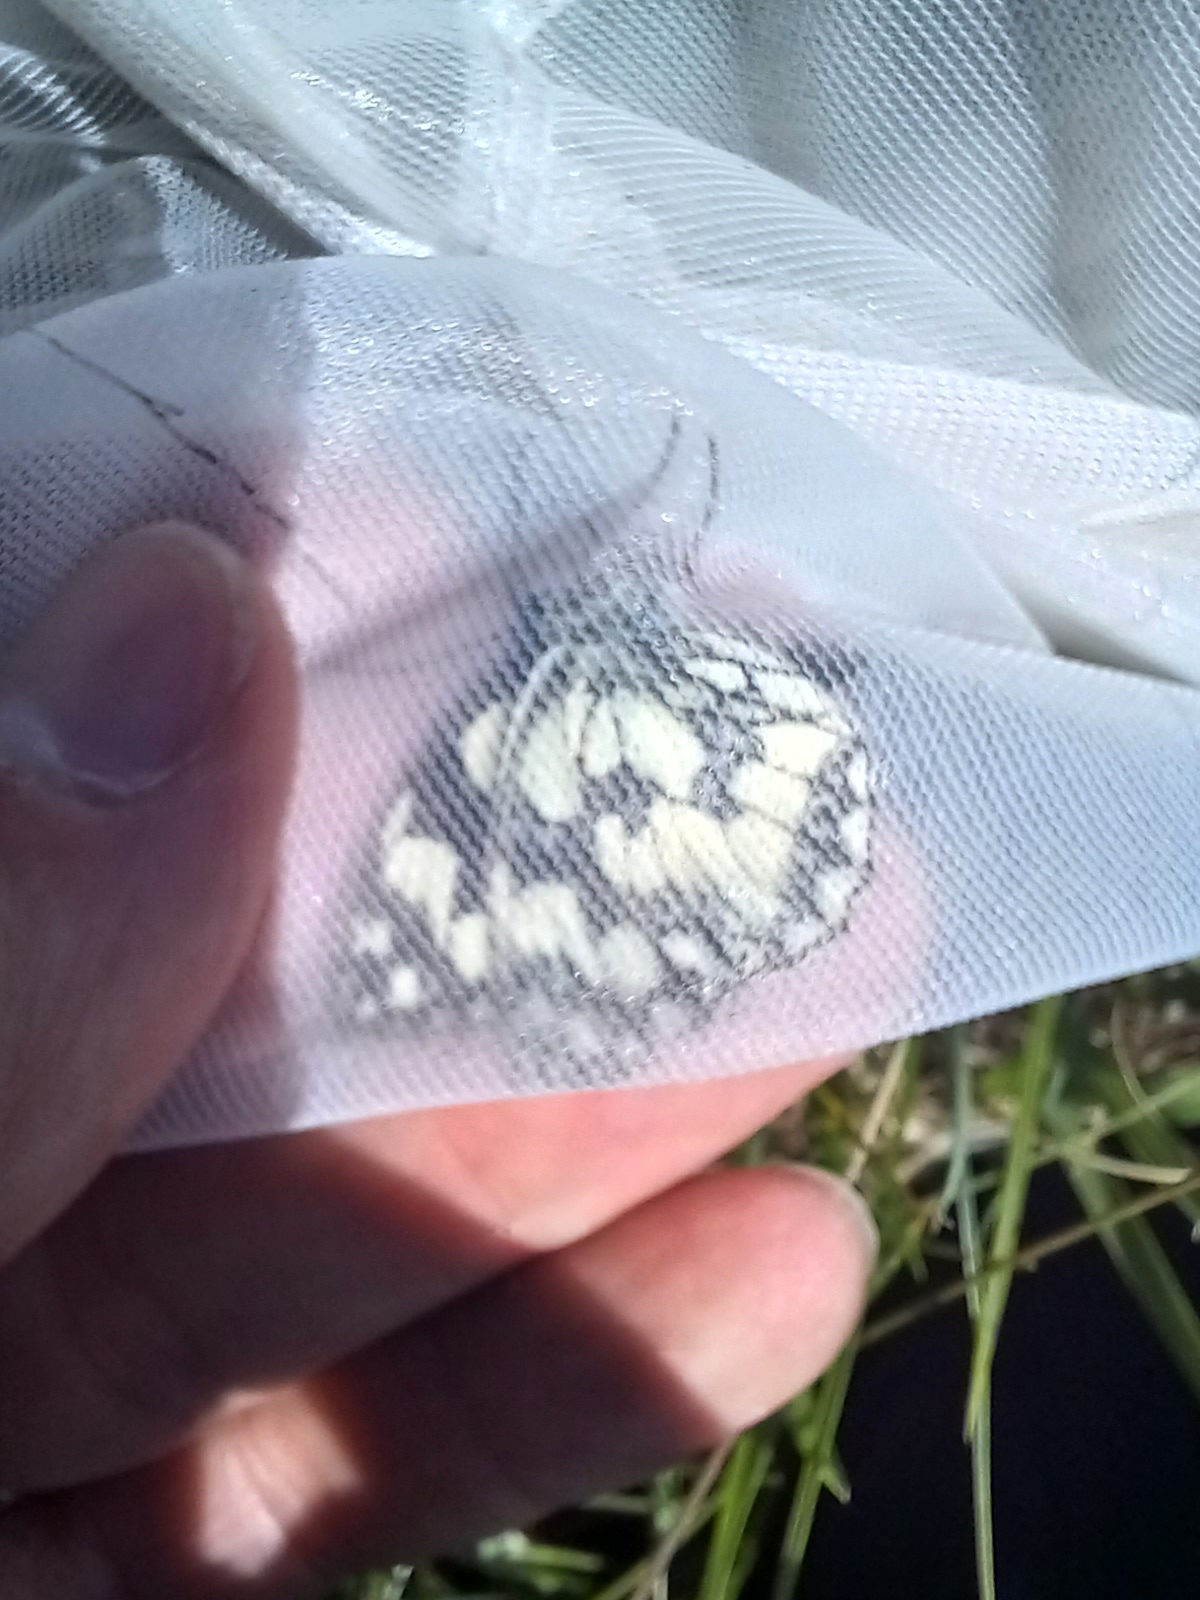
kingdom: Animalia
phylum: Arthropoda
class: Insecta
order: Lepidoptera
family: Nymphalidae
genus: Melanargia
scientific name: Melanargia galathea
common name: Marbled white
